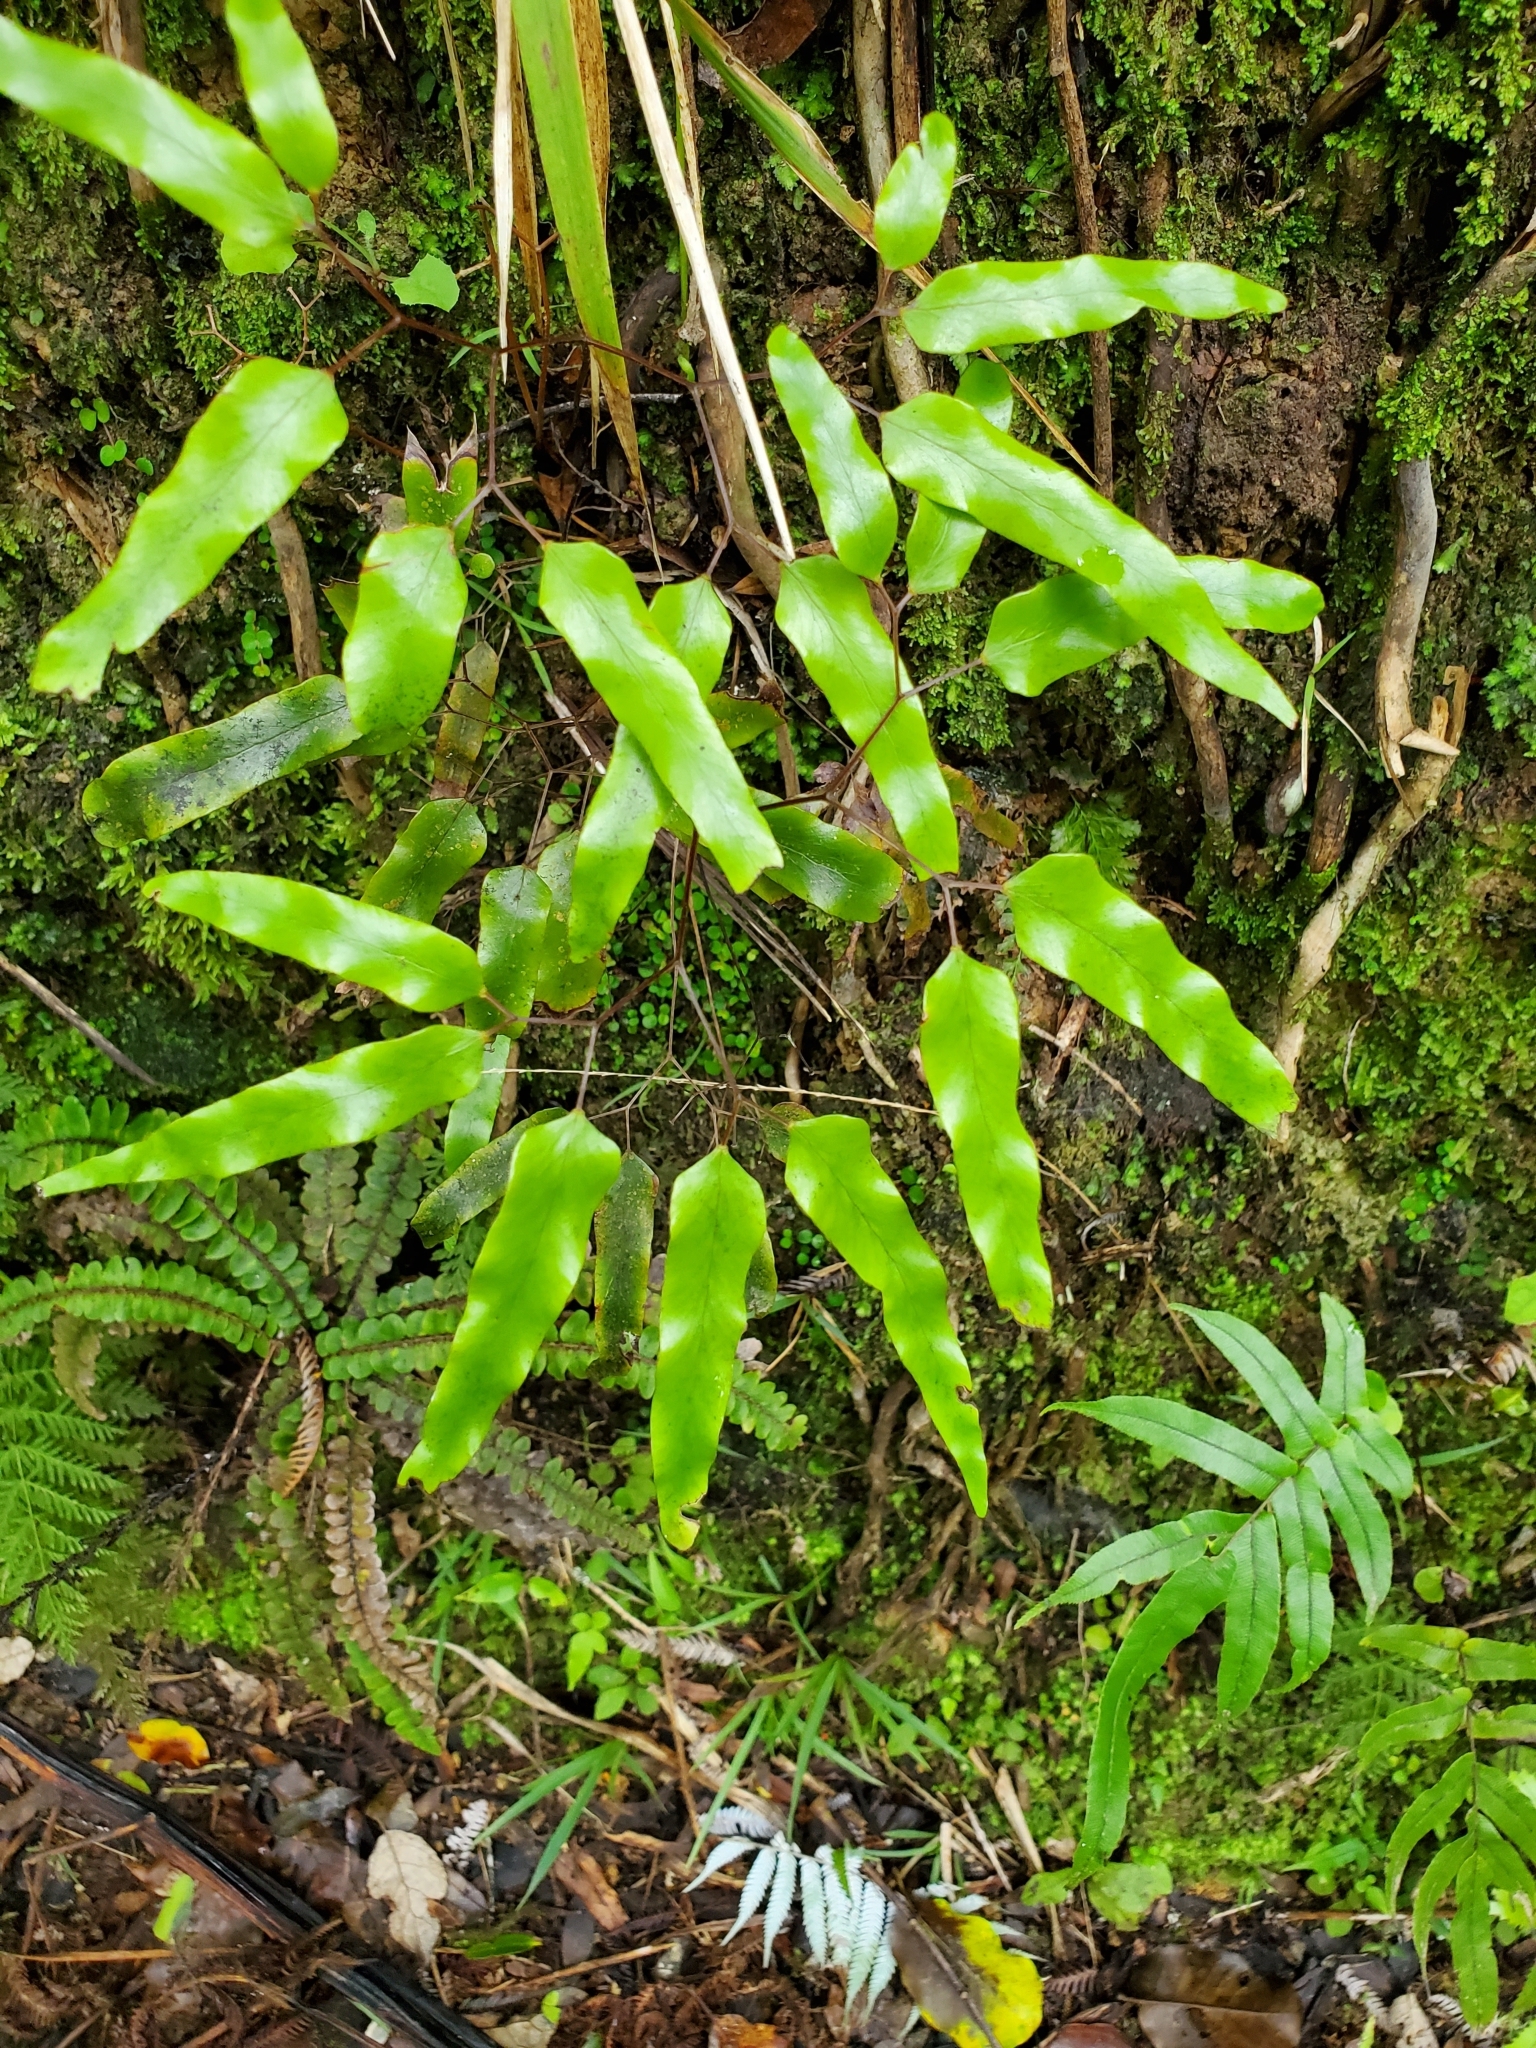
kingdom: Plantae
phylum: Tracheophyta
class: Polypodiopsida
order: Schizaeales
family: Lygodiaceae
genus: Lygodium
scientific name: Lygodium articulatum
